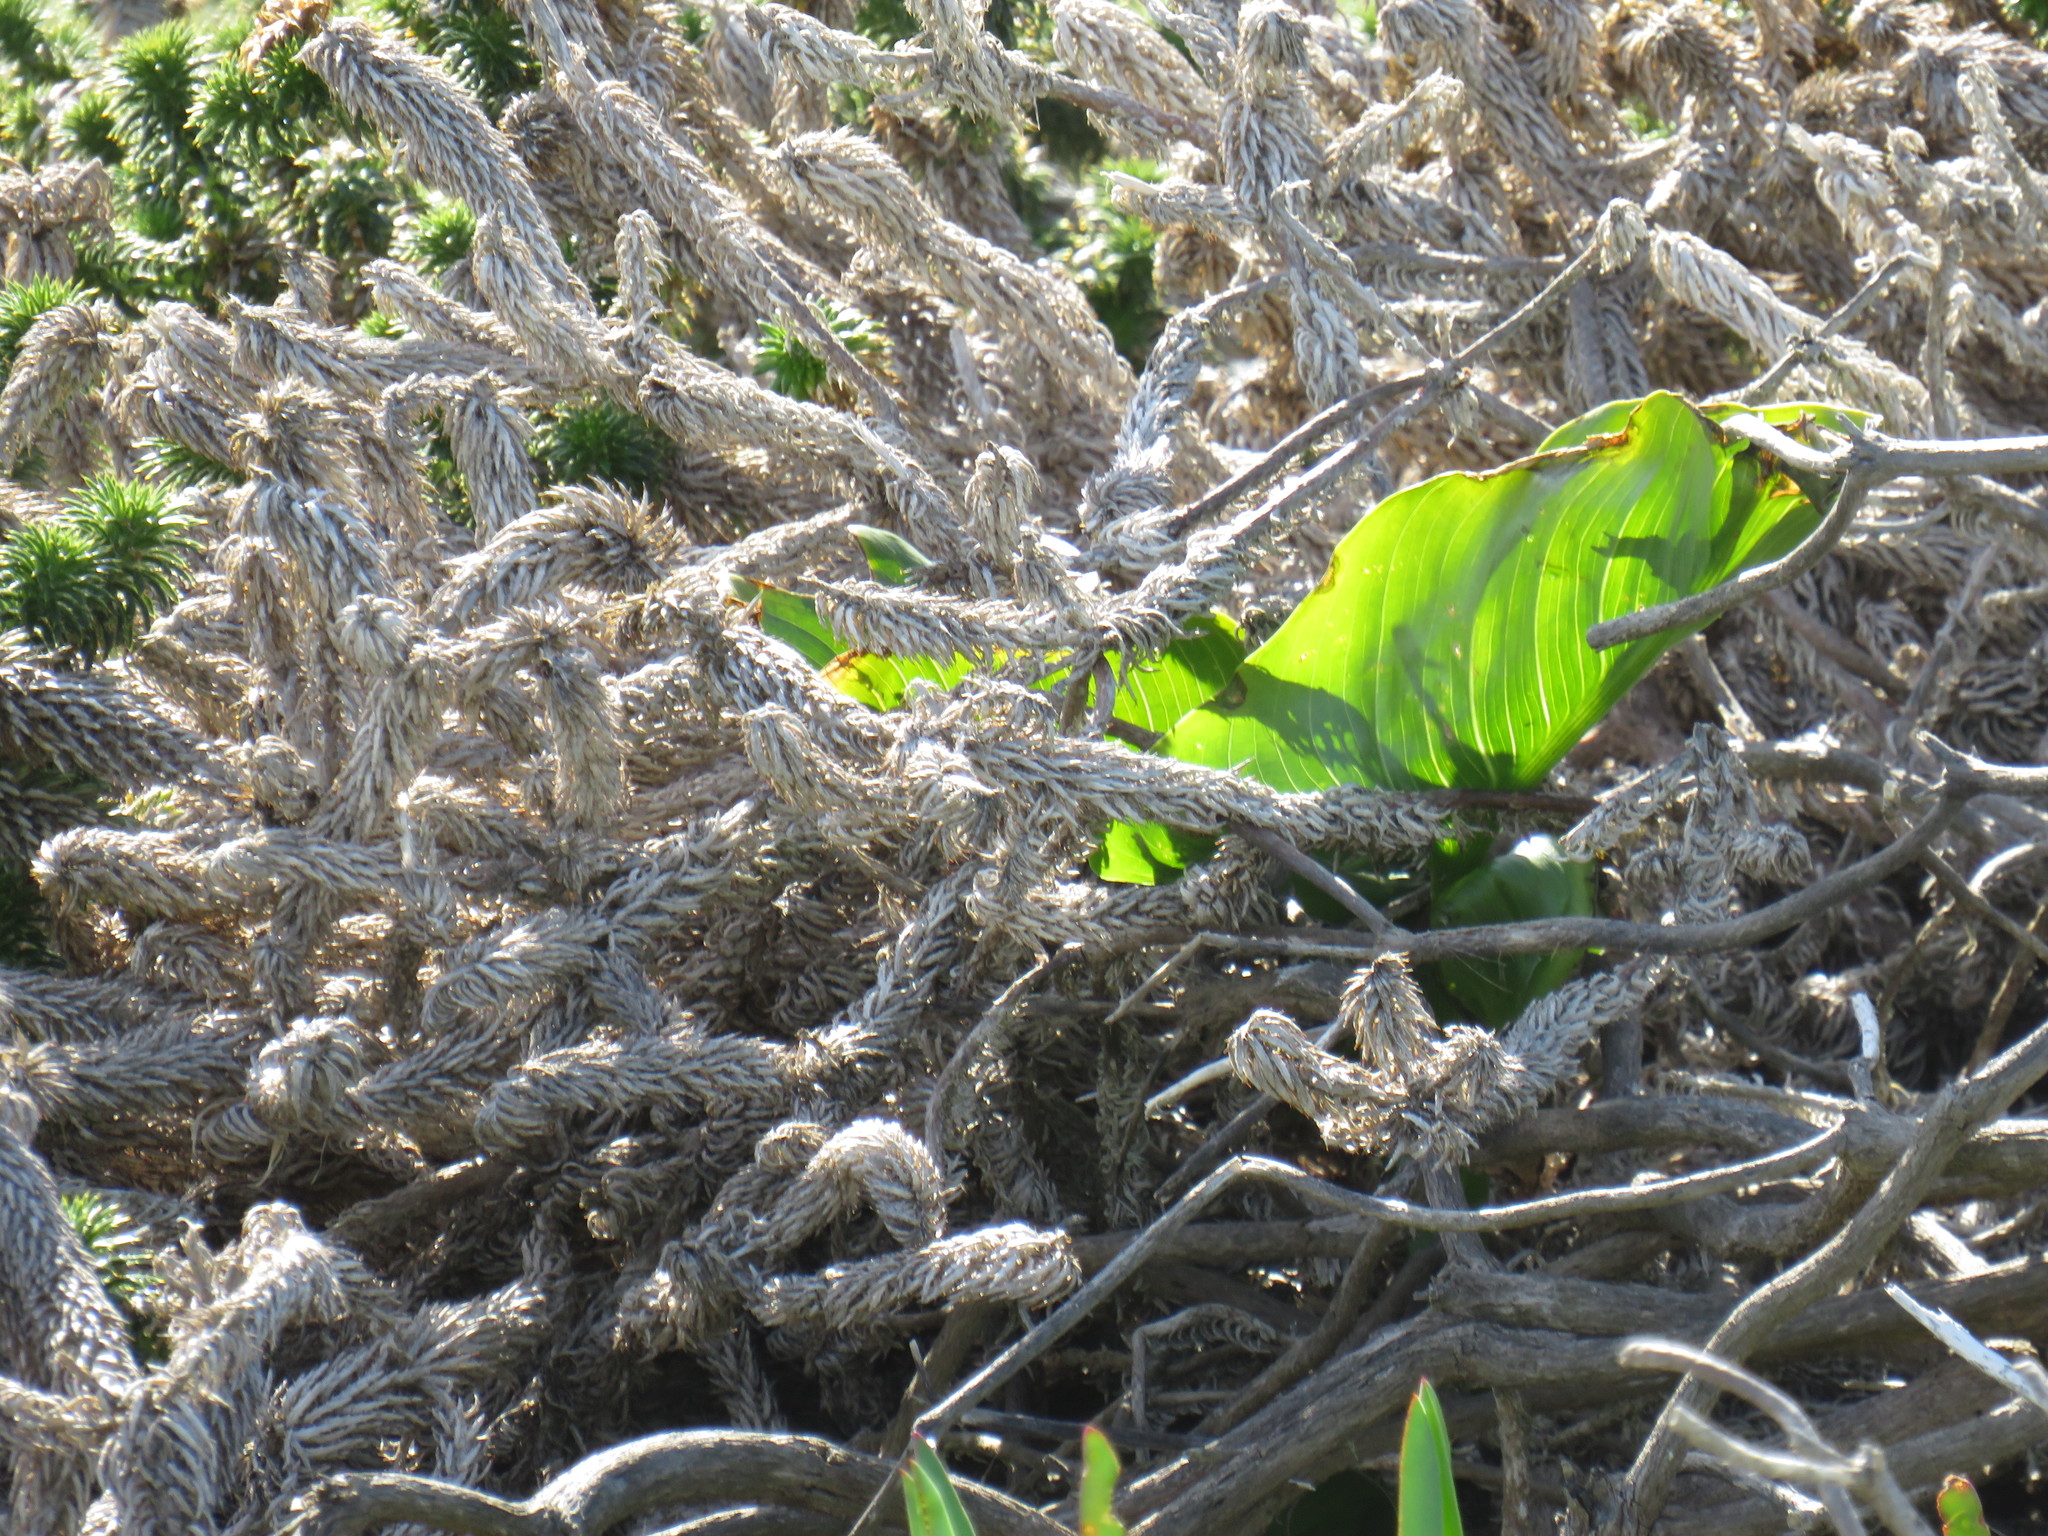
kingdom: Plantae
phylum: Tracheophyta
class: Liliopsida
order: Alismatales
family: Araceae
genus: Zantedeschia
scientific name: Zantedeschia aethiopica
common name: Altar-lily
